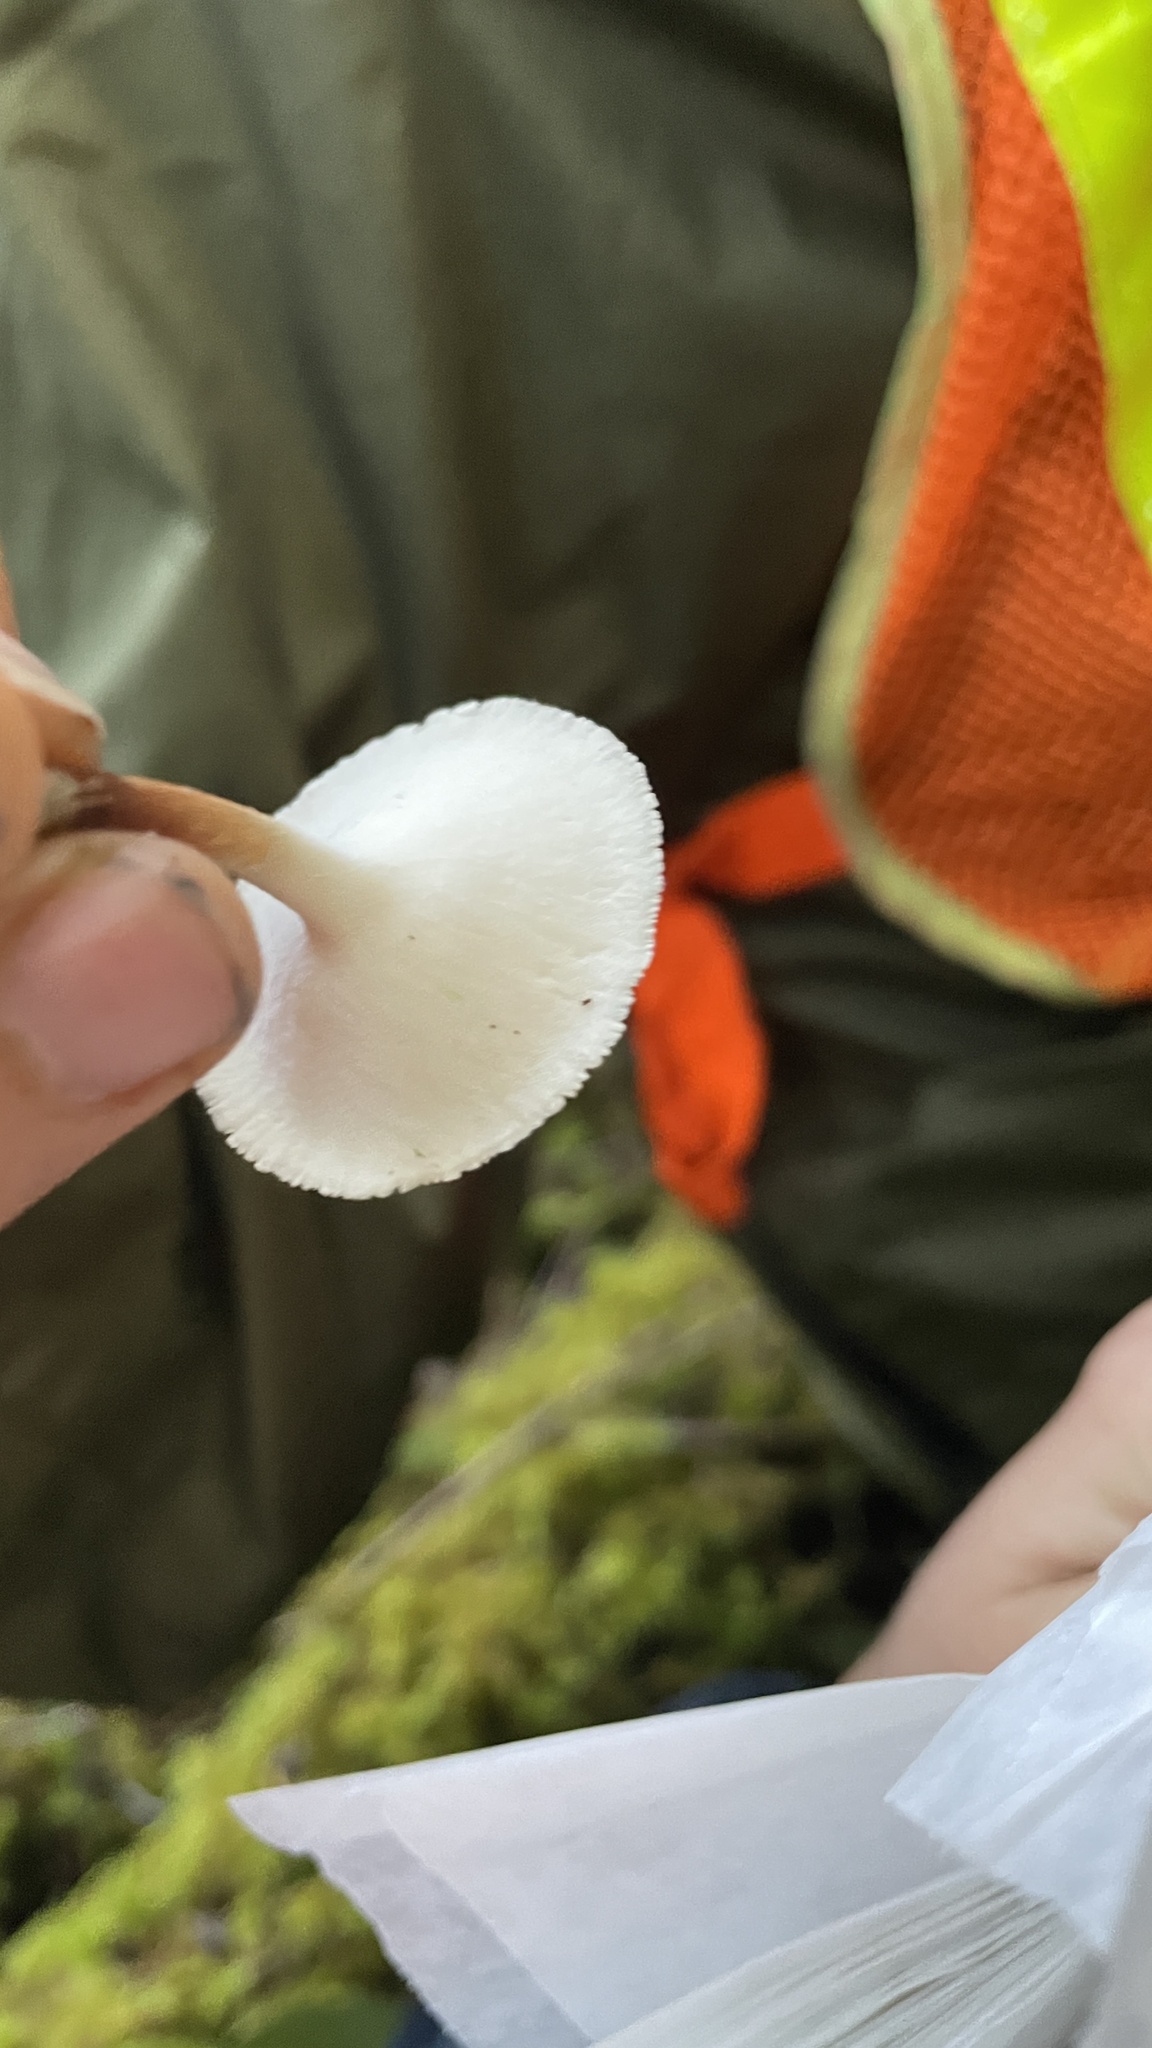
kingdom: Fungi
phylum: Basidiomycota
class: Agaricomycetes
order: Polyporales
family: Polyporaceae
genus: Picipes
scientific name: Picipes tubaeformis
